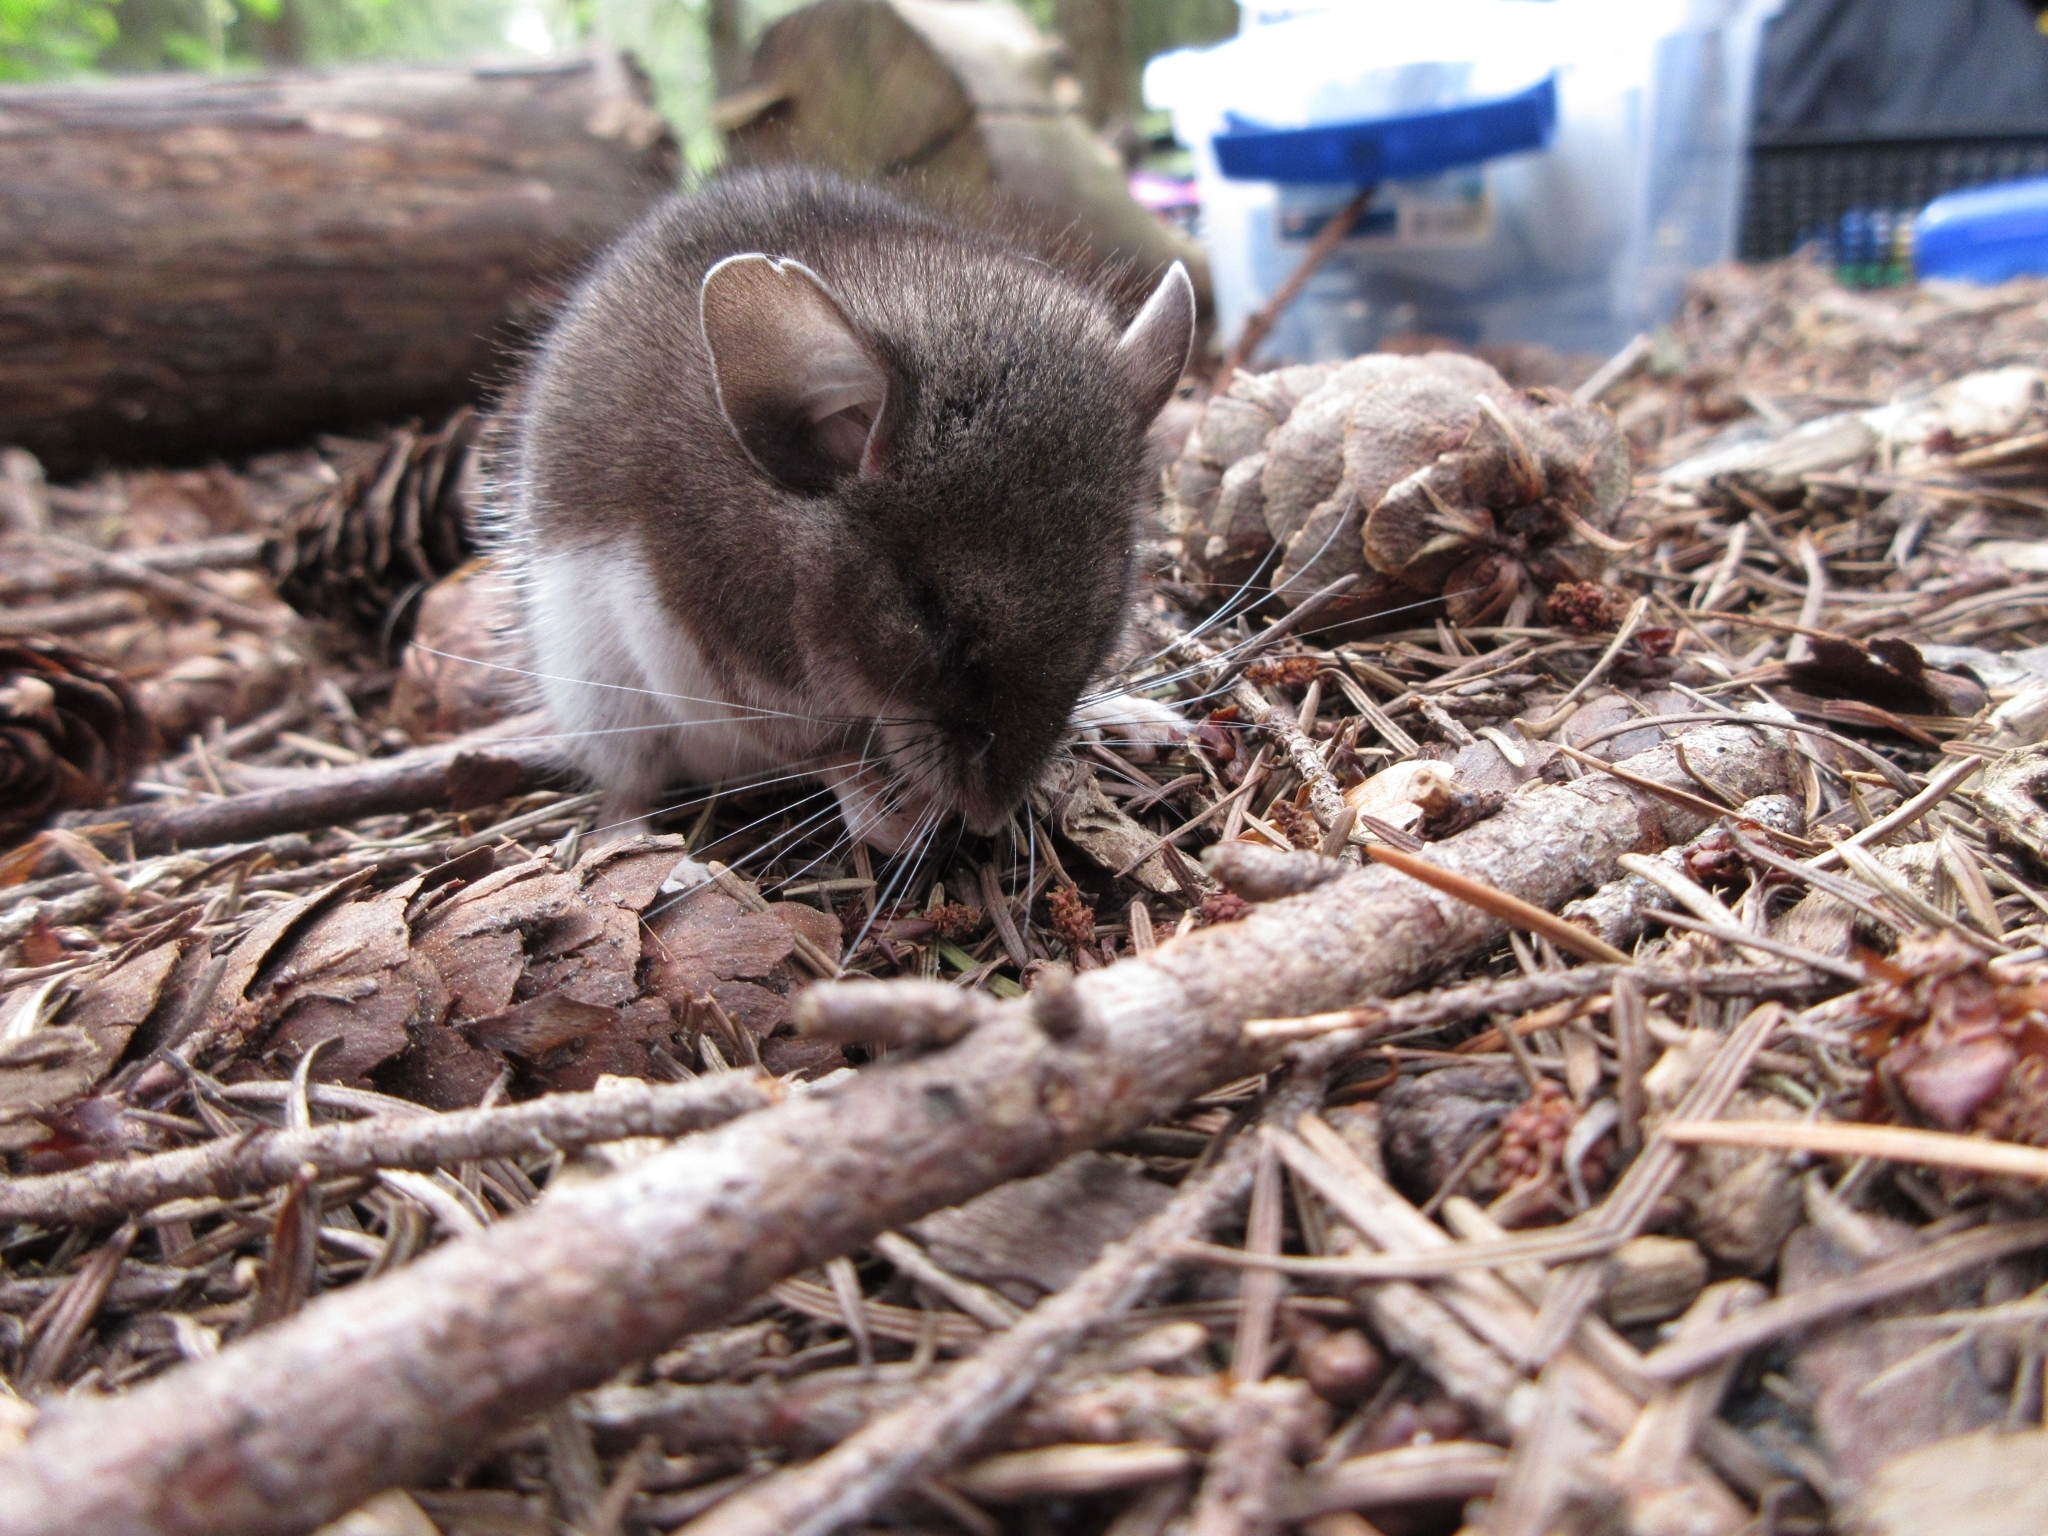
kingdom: Animalia
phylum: Chordata
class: Mammalia
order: Rodentia
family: Cricetidae
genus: Peromyscus
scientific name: Peromyscus maniculatus
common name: Deer mouse
